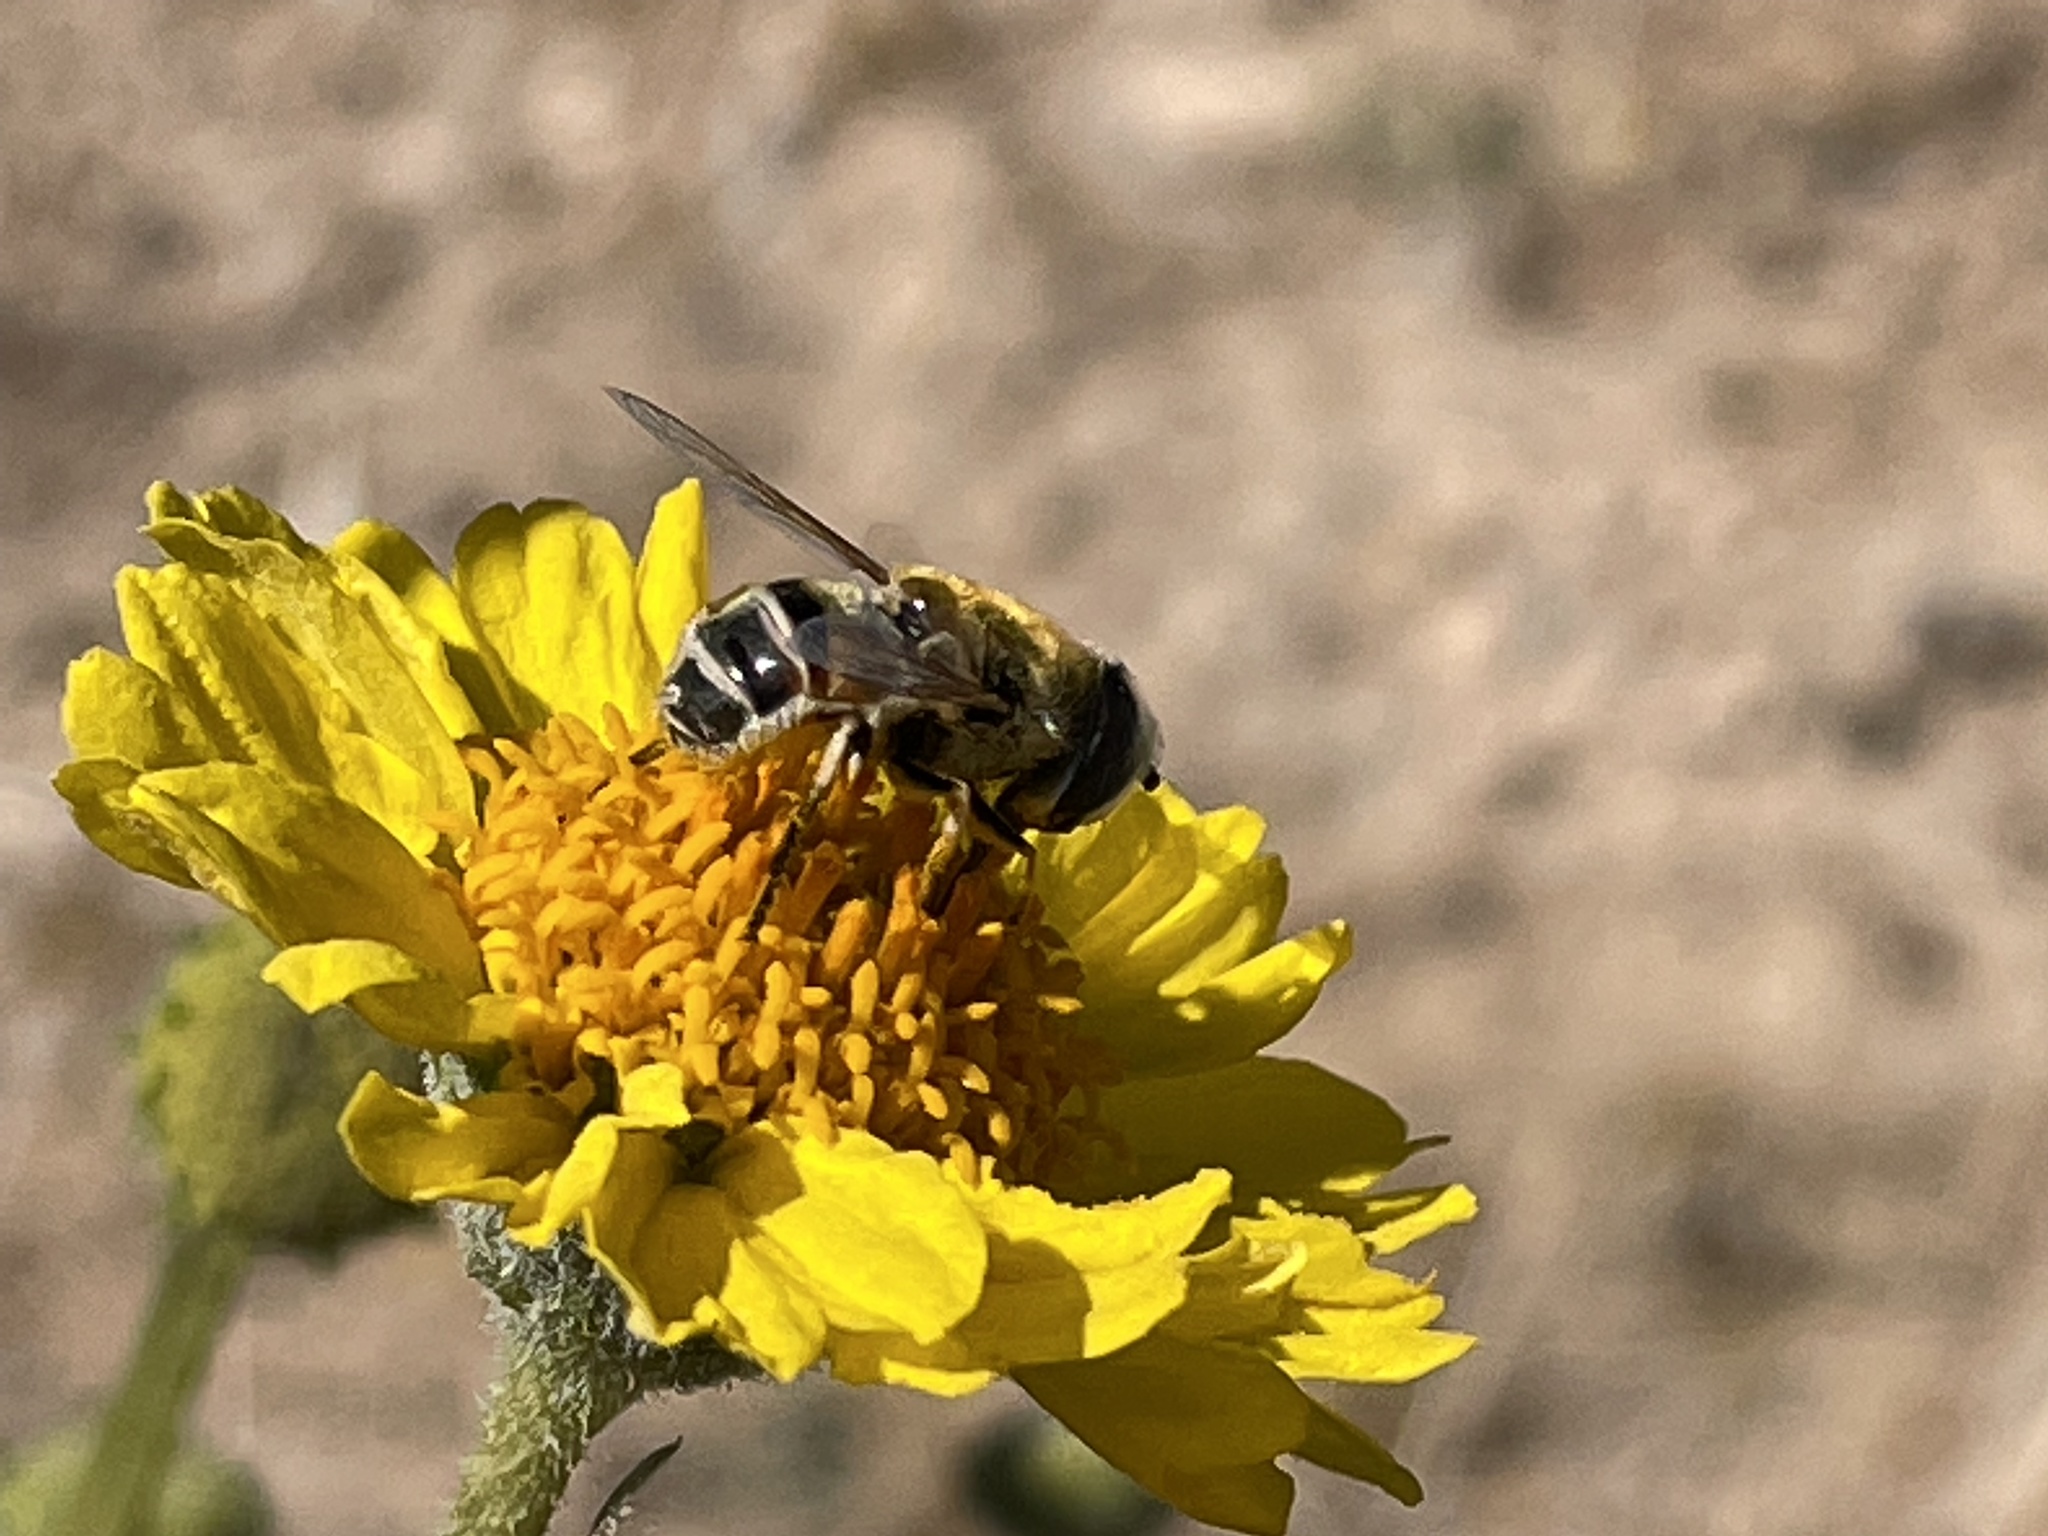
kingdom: Animalia
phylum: Arthropoda
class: Insecta
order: Diptera
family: Syrphidae
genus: Eristalis
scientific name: Eristalis stipator
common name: Yellow-shouldered drone fly
